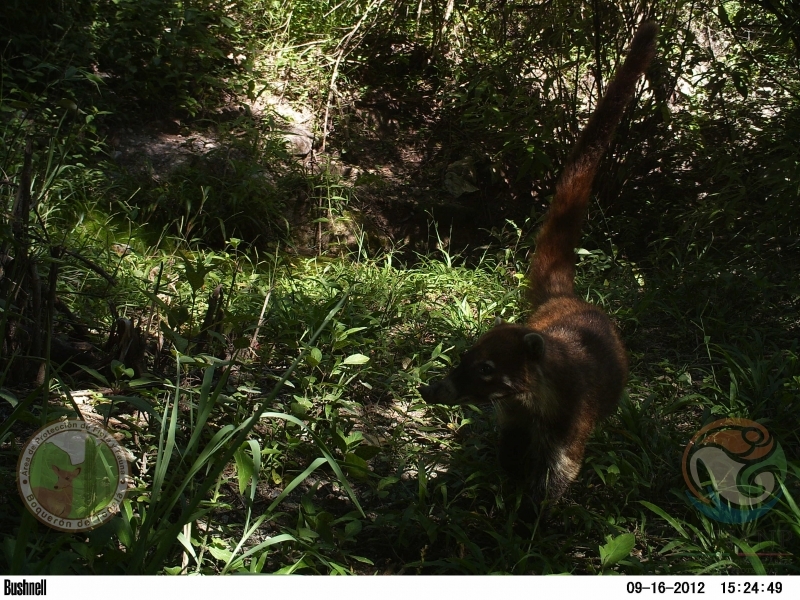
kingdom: Animalia
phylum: Chordata
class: Mammalia
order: Carnivora
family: Procyonidae
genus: Nasua
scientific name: Nasua narica
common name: White-nosed coati
